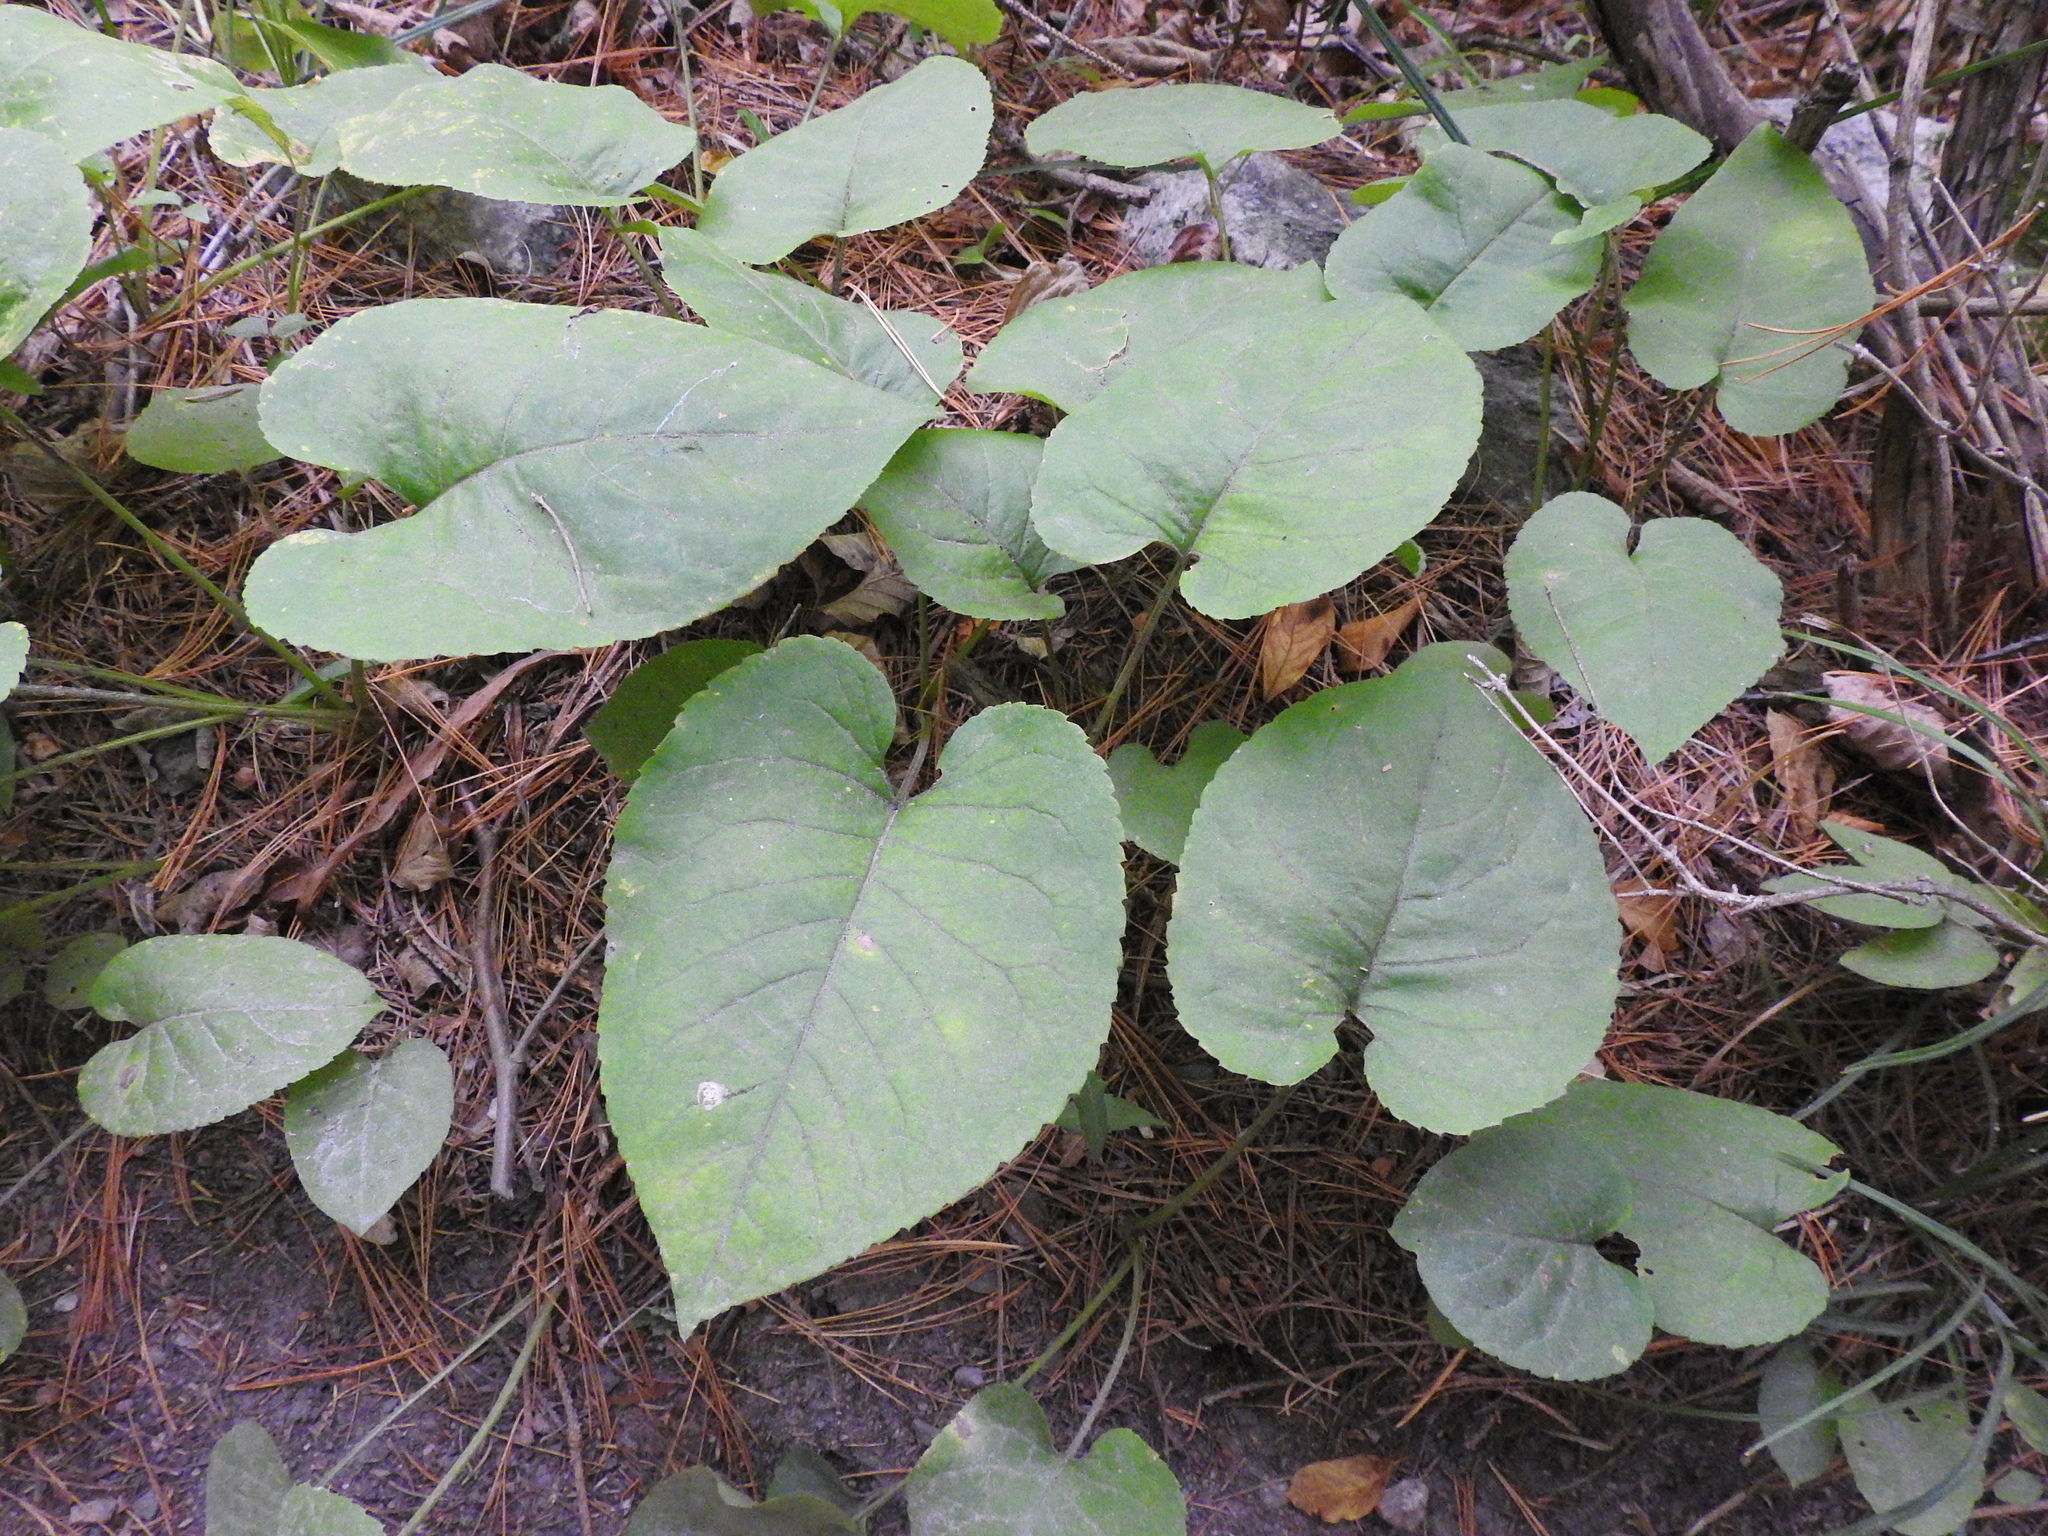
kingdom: Plantae
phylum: Tracheophyta
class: Magnoliopsida
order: Asterales
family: Asteraceae
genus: Eurybia
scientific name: Eurybia macrophylla
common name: Big-leaved aster
